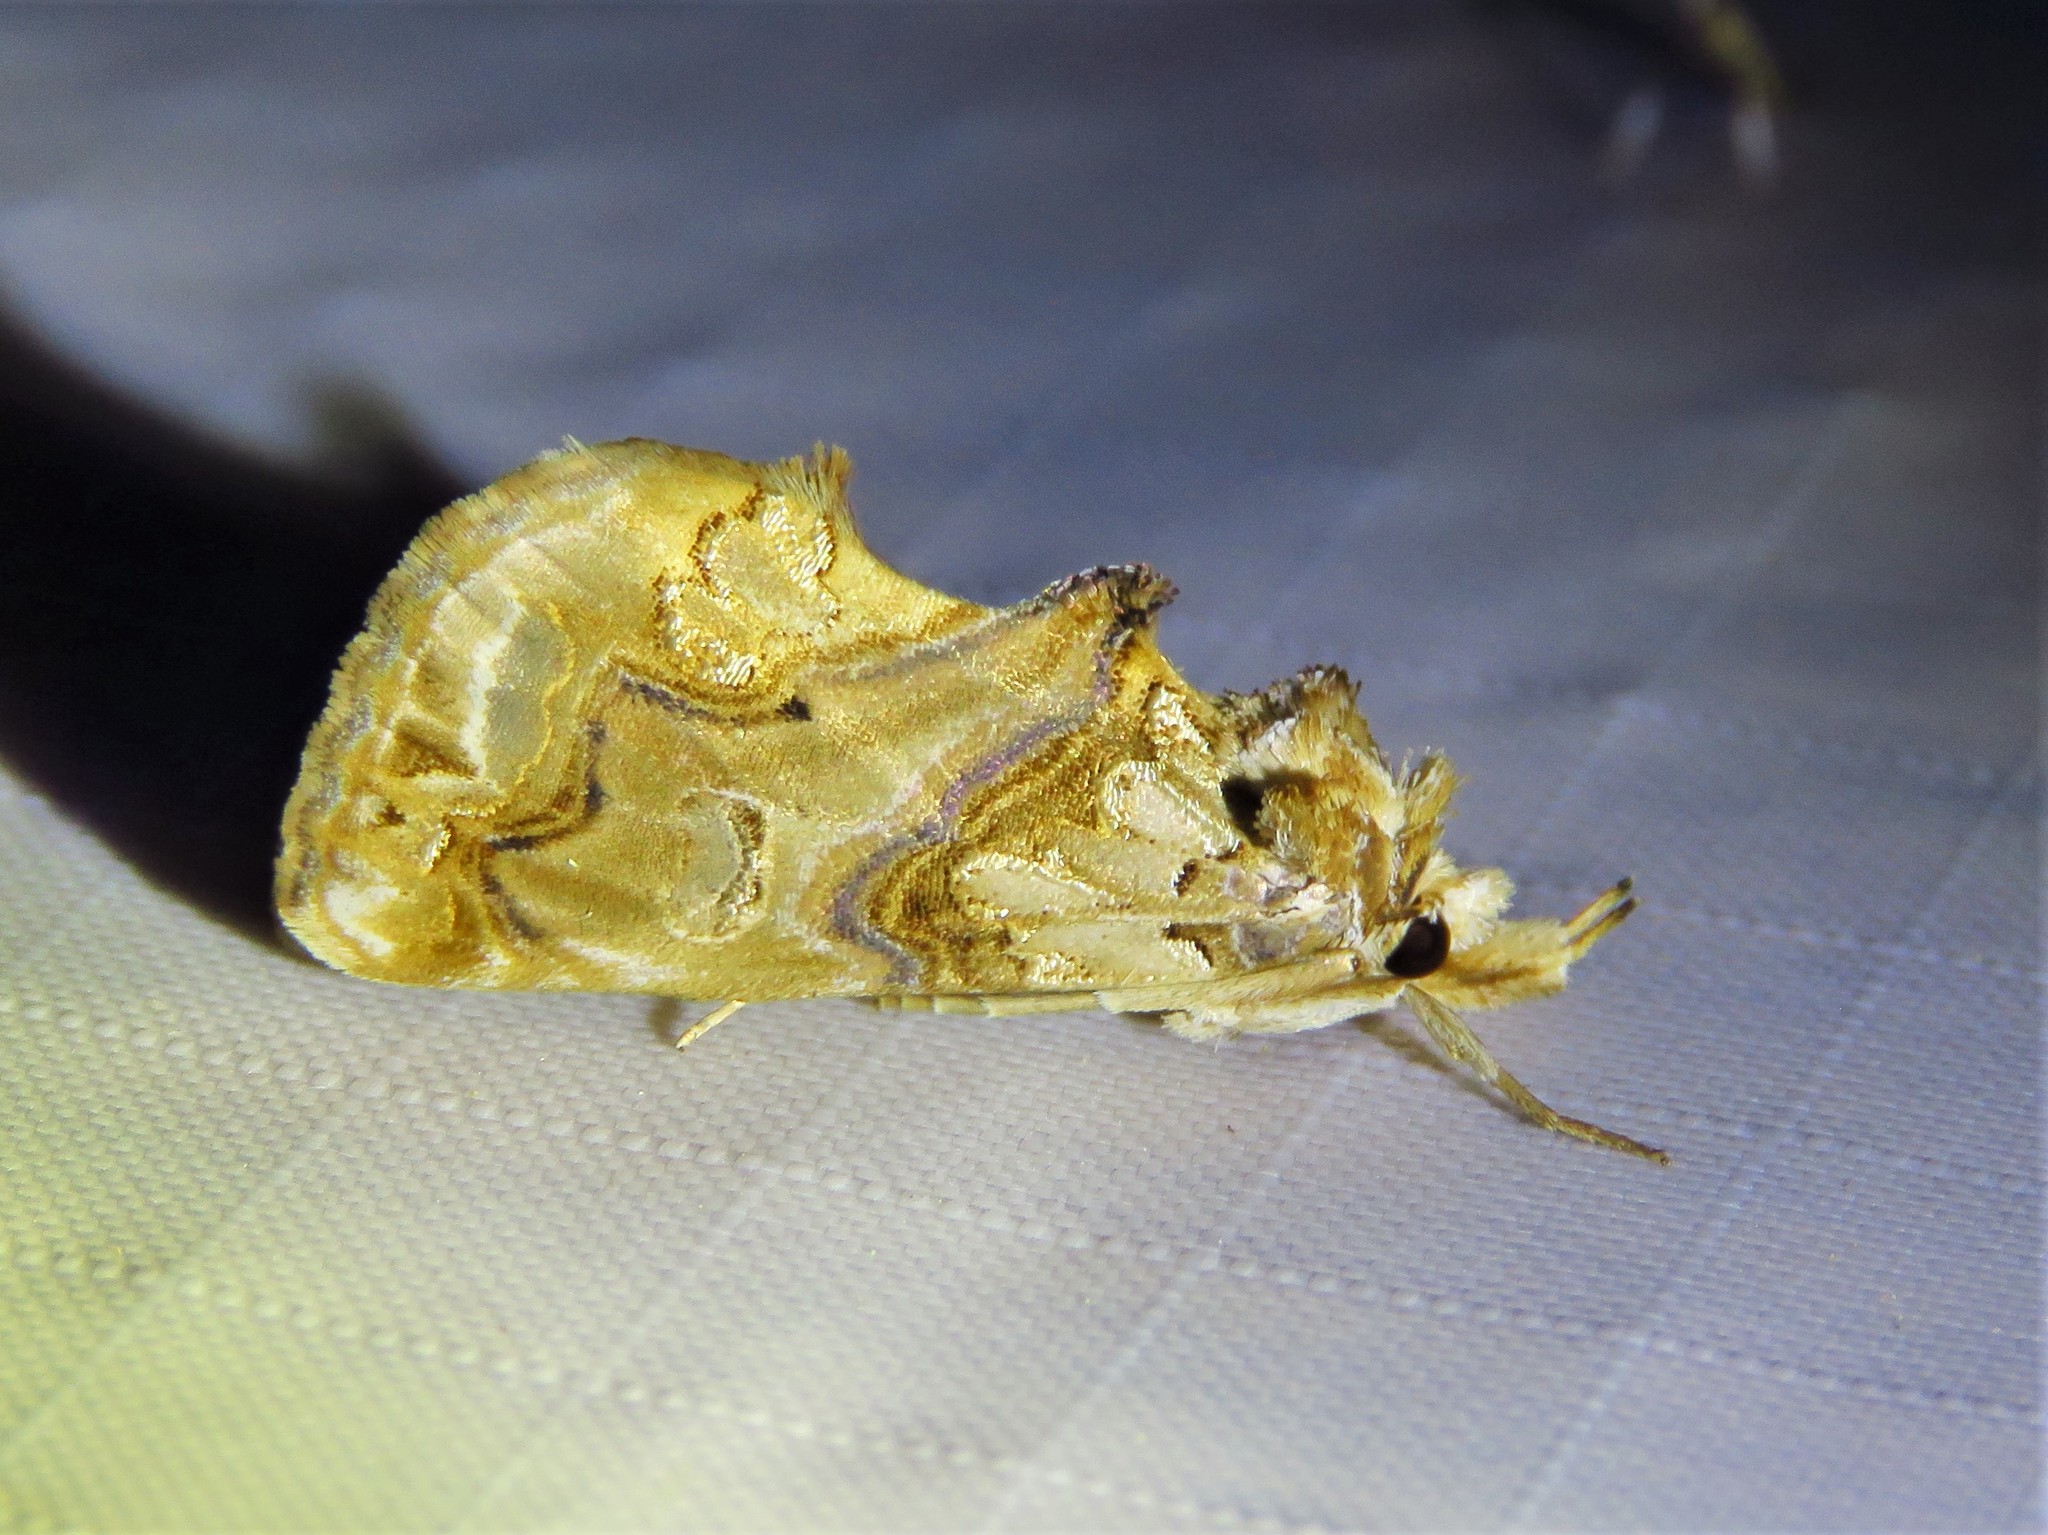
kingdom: Animalia
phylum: Arthropoda
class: Insecta
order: Lepidoptera
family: Erebidae
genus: Plusiodonta
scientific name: Plusiodonta compressipalpis
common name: Moonseed moth
